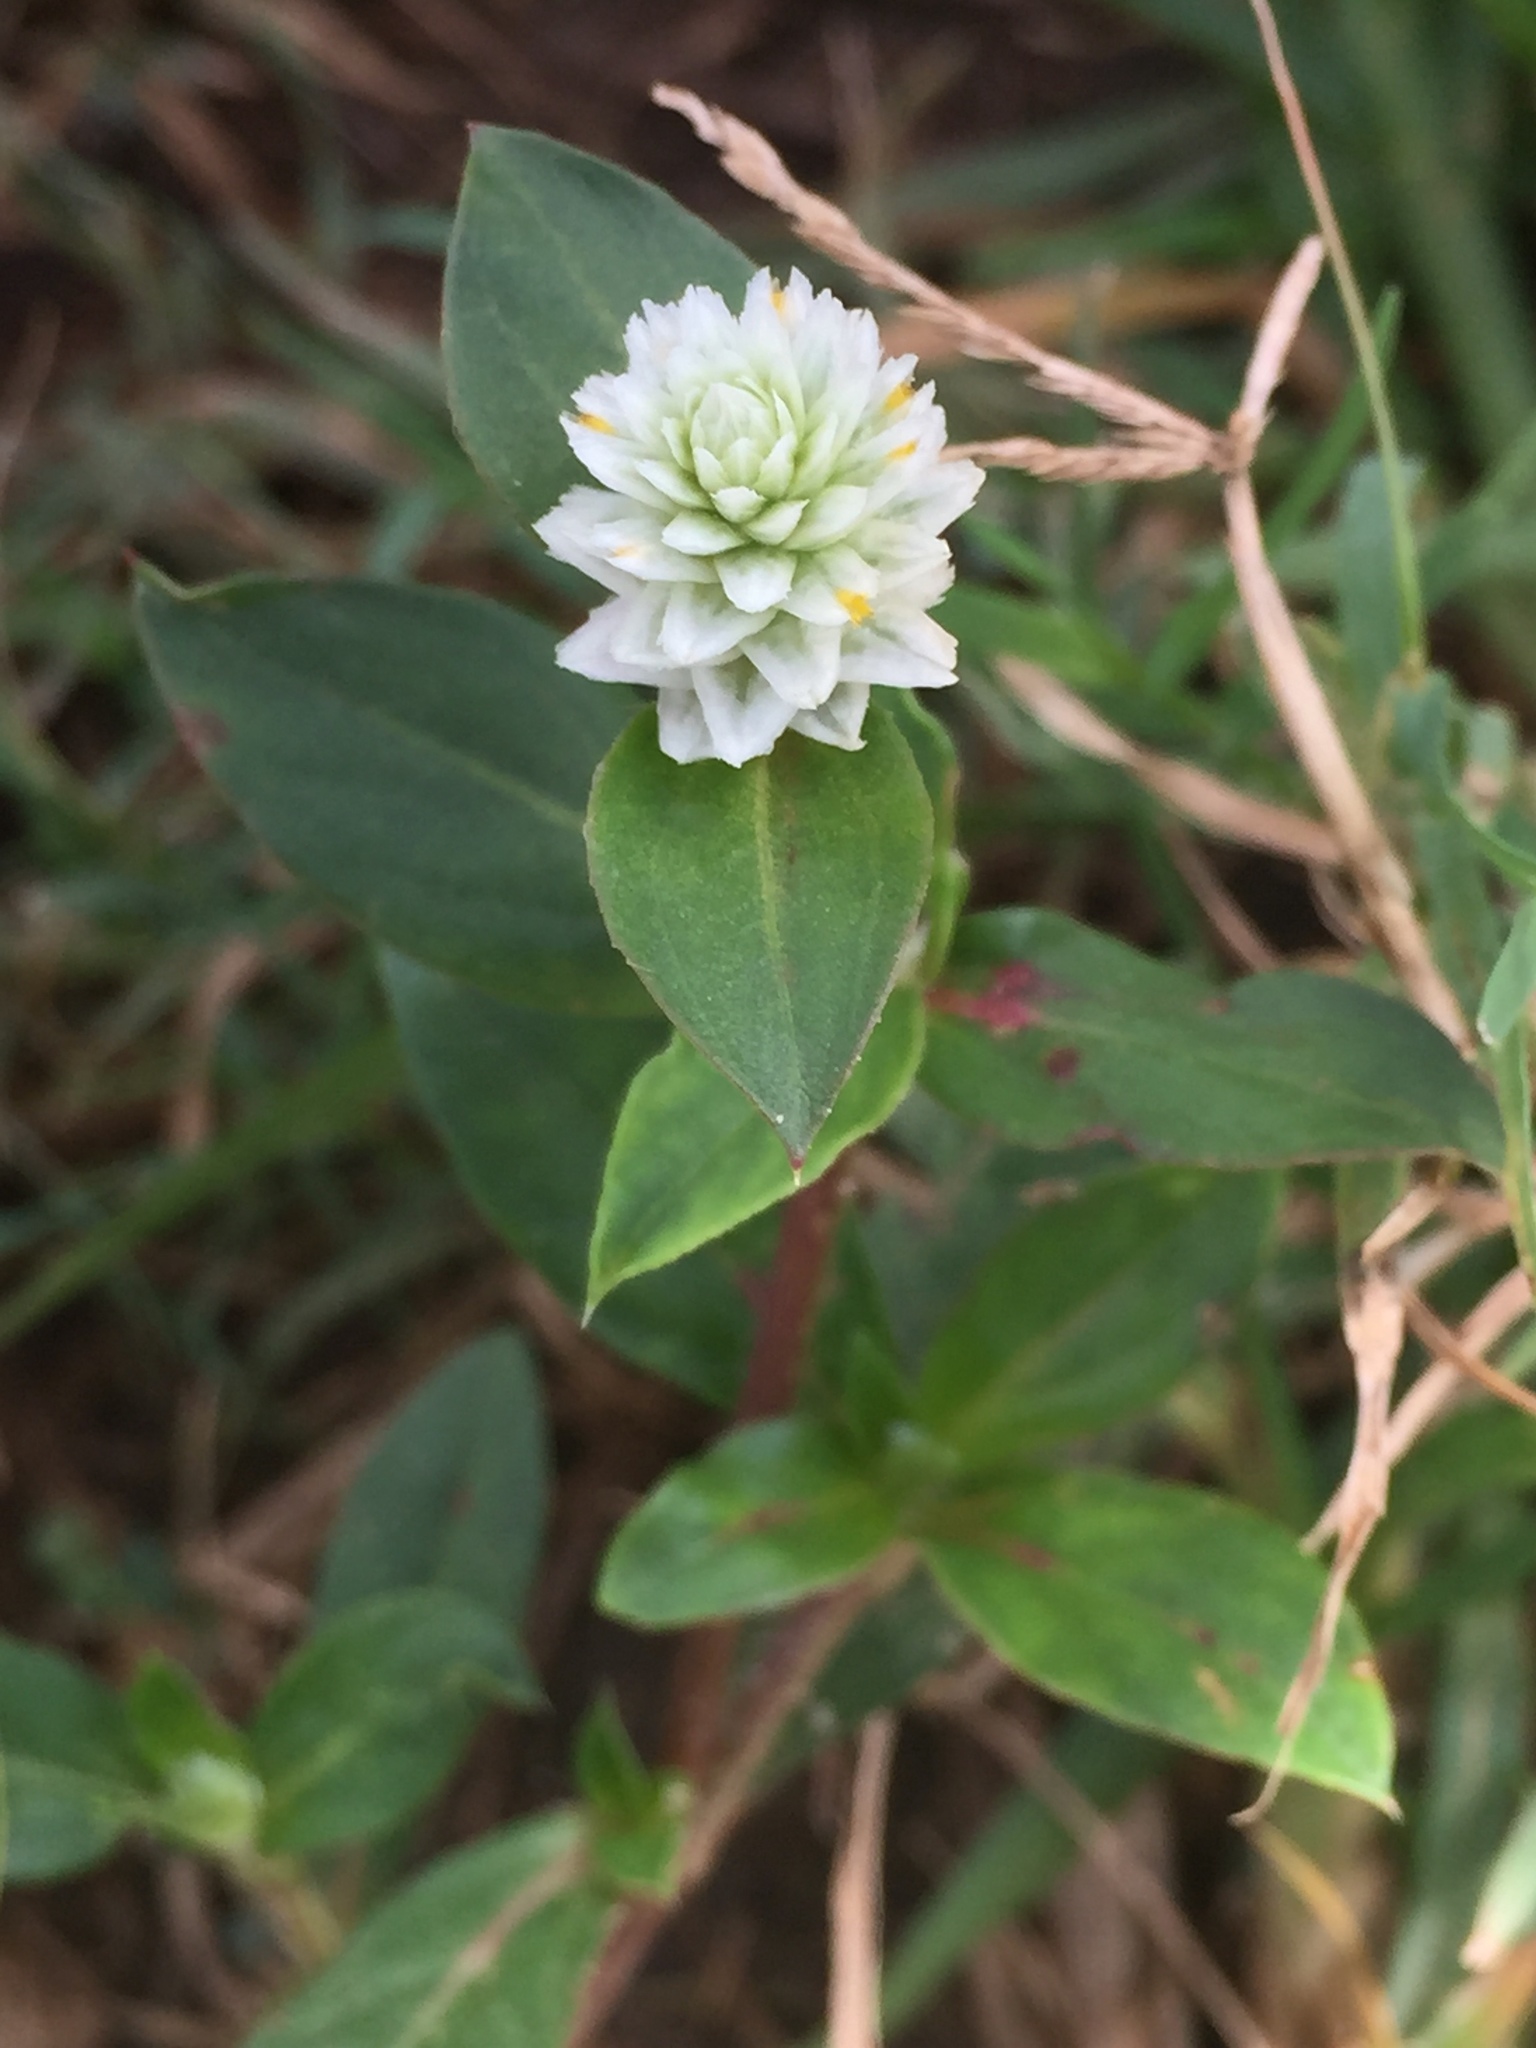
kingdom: Plantae
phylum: Tracheophyta
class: Magnoliopsida
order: Caryophyllales
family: Amaranthaceae
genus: Gomphrena
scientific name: Gomphrena serrata
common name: Arrasa con todo
